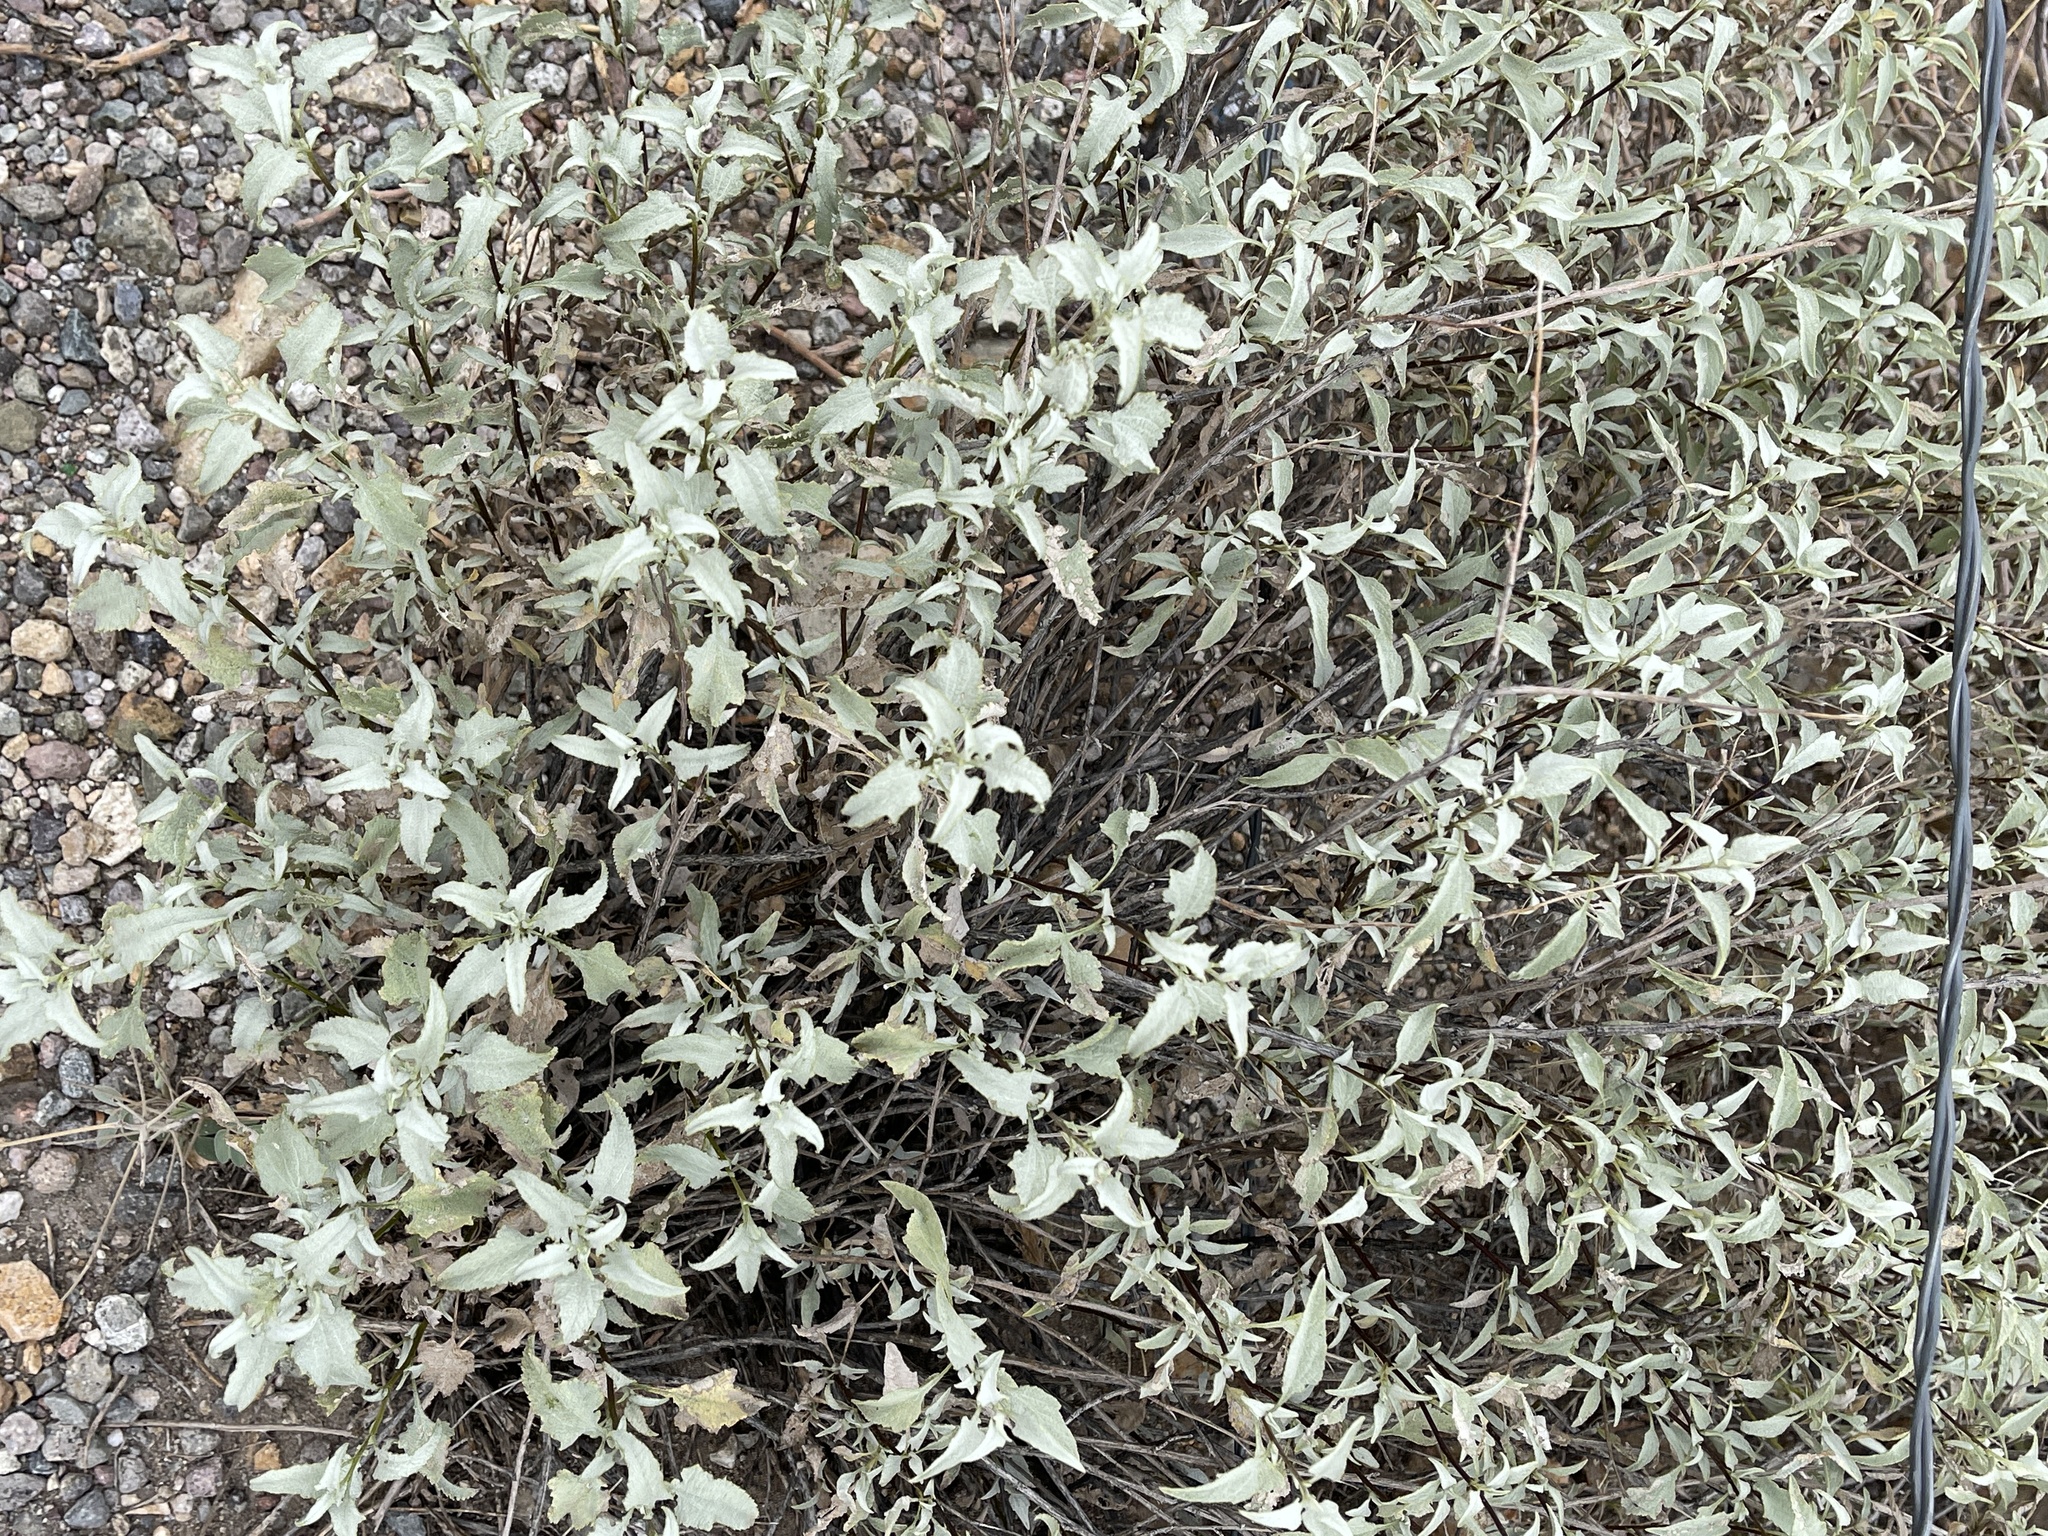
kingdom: Plantae
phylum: Tracheophyta
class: Magnoliopsida
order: Asterales
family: Asteraceae
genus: Ambrosia
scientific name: Ambrosia deltoidea
